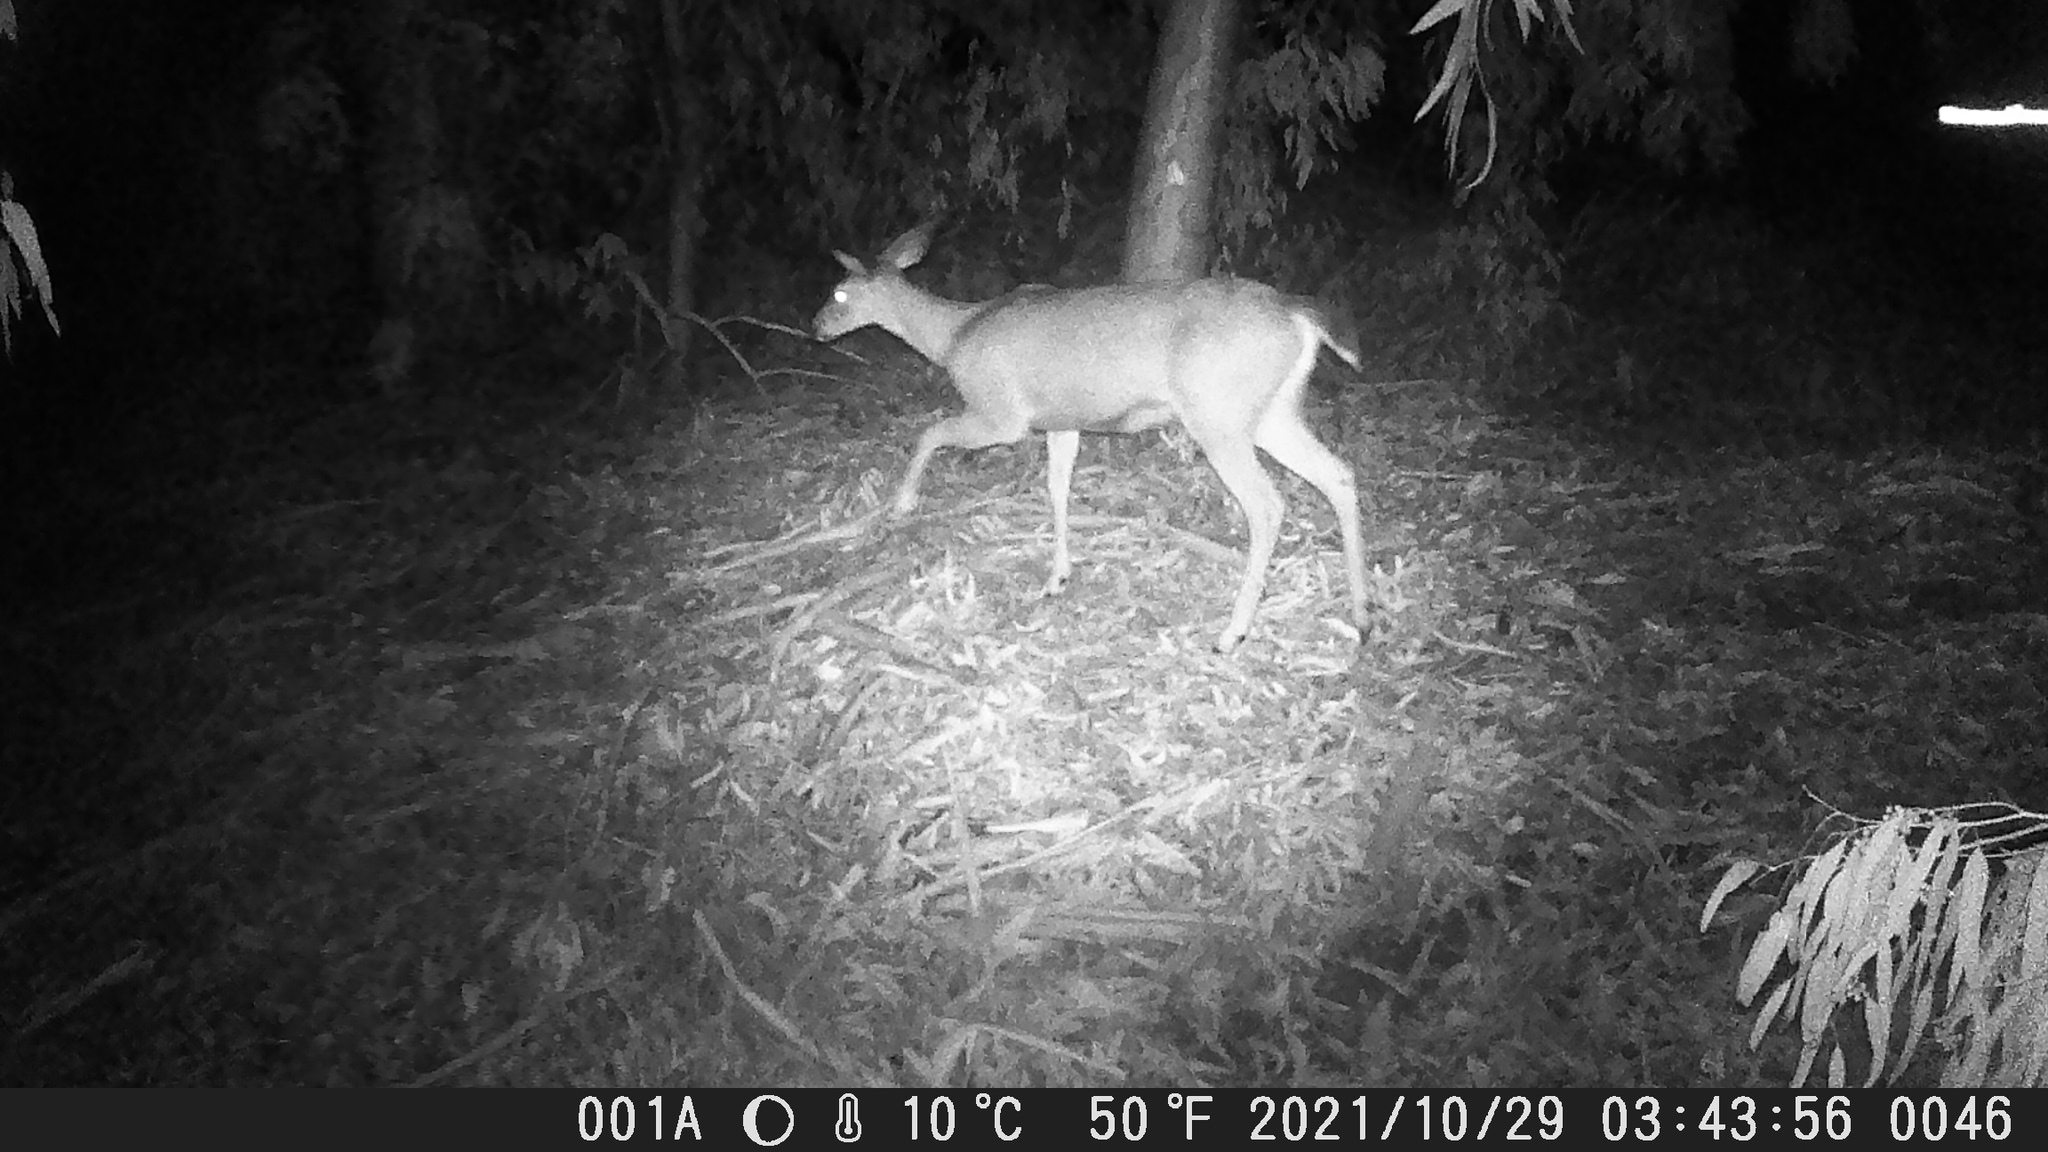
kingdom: Animalia
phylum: Chordata
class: Mammalia
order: Artiodactyla
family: Cervidae
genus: Odocoileus
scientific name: Odocoileus hemionus
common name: Mule deer
